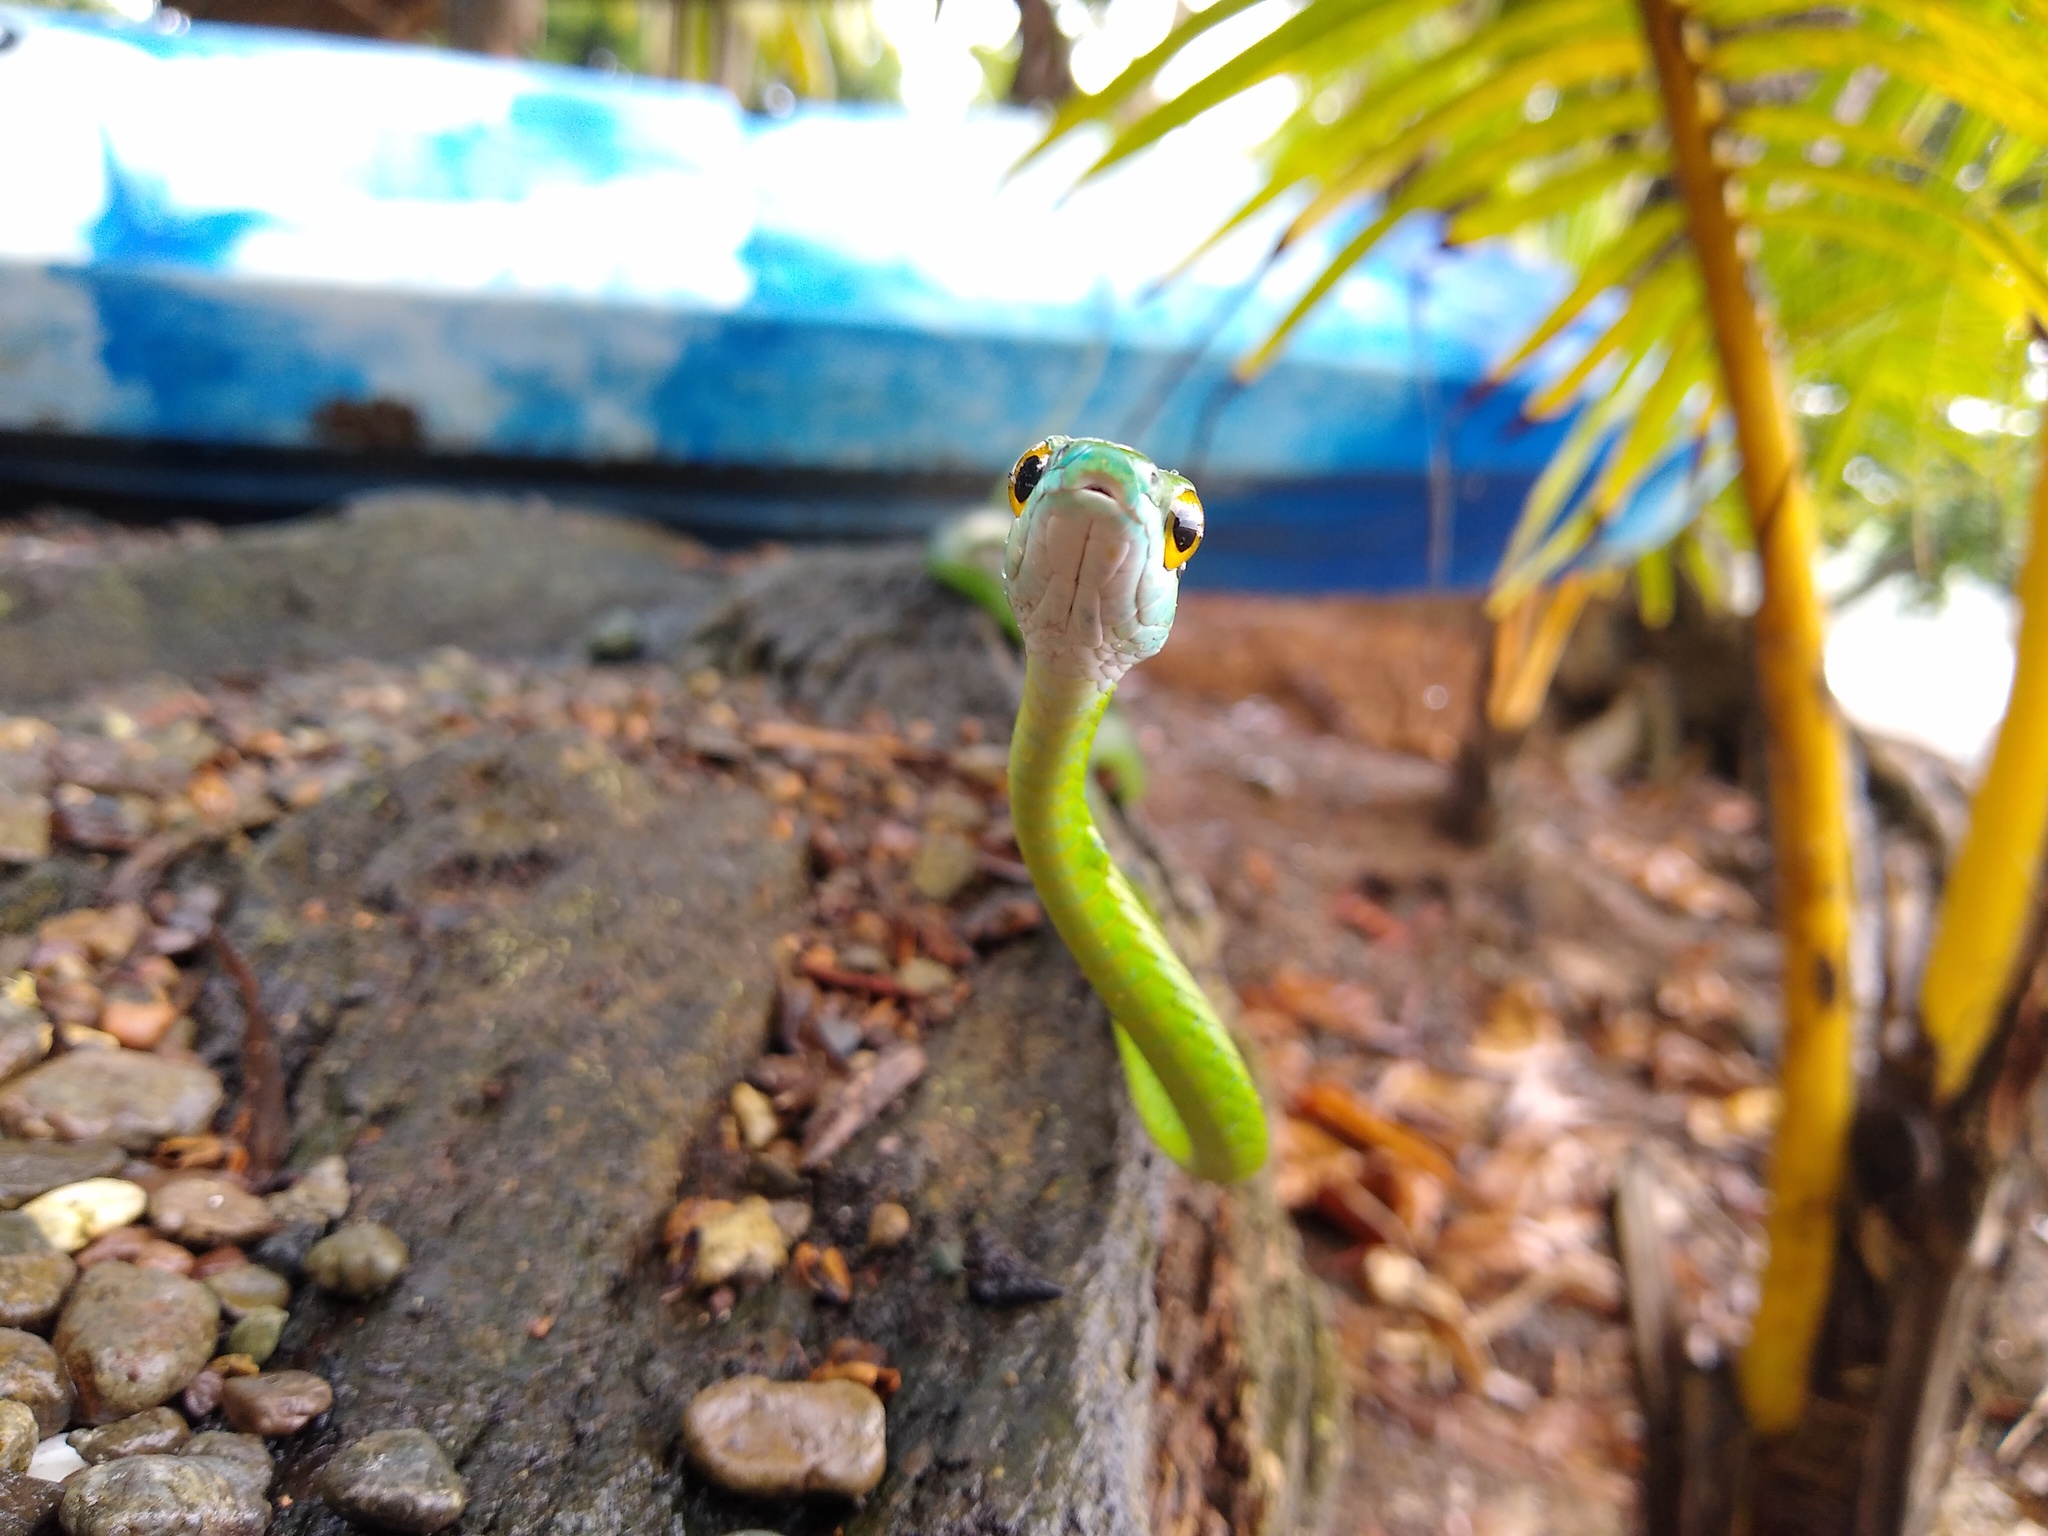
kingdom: Animalia
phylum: Chordata
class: Squamata
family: Colubridae
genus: Leptophis
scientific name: Leptophis ahaetulla
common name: Parrot snake
